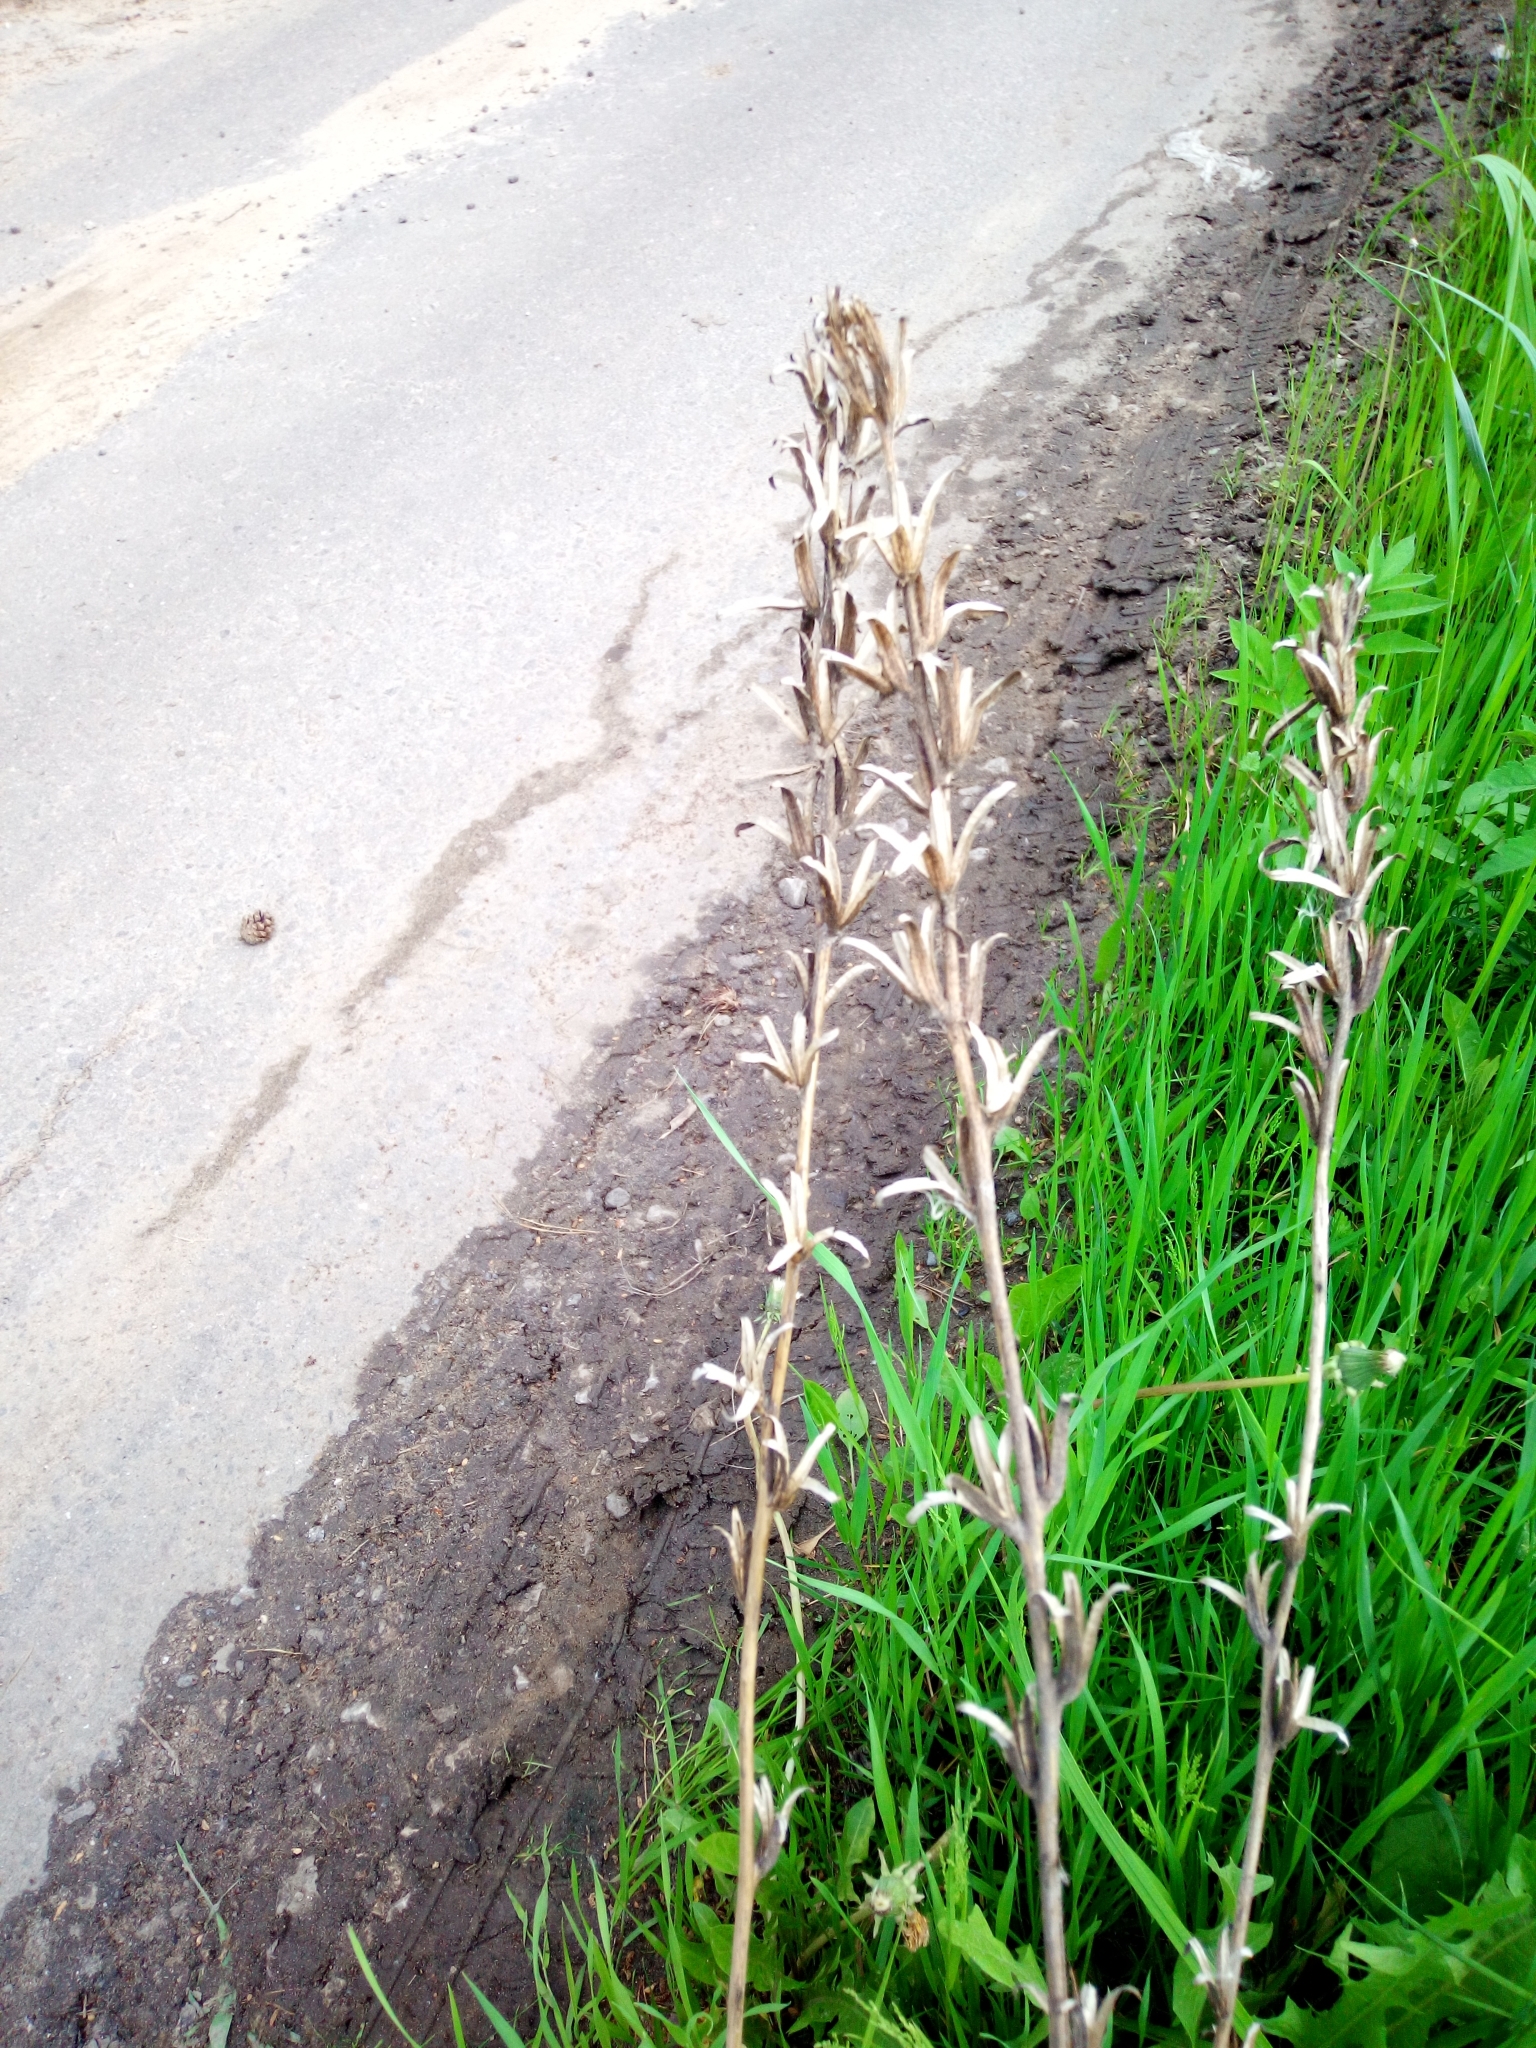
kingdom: Plantae
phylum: Tracheophyta
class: Magnoliopsida
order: Myrtales
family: Onagraceae
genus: Oenothera
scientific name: Oenothera
